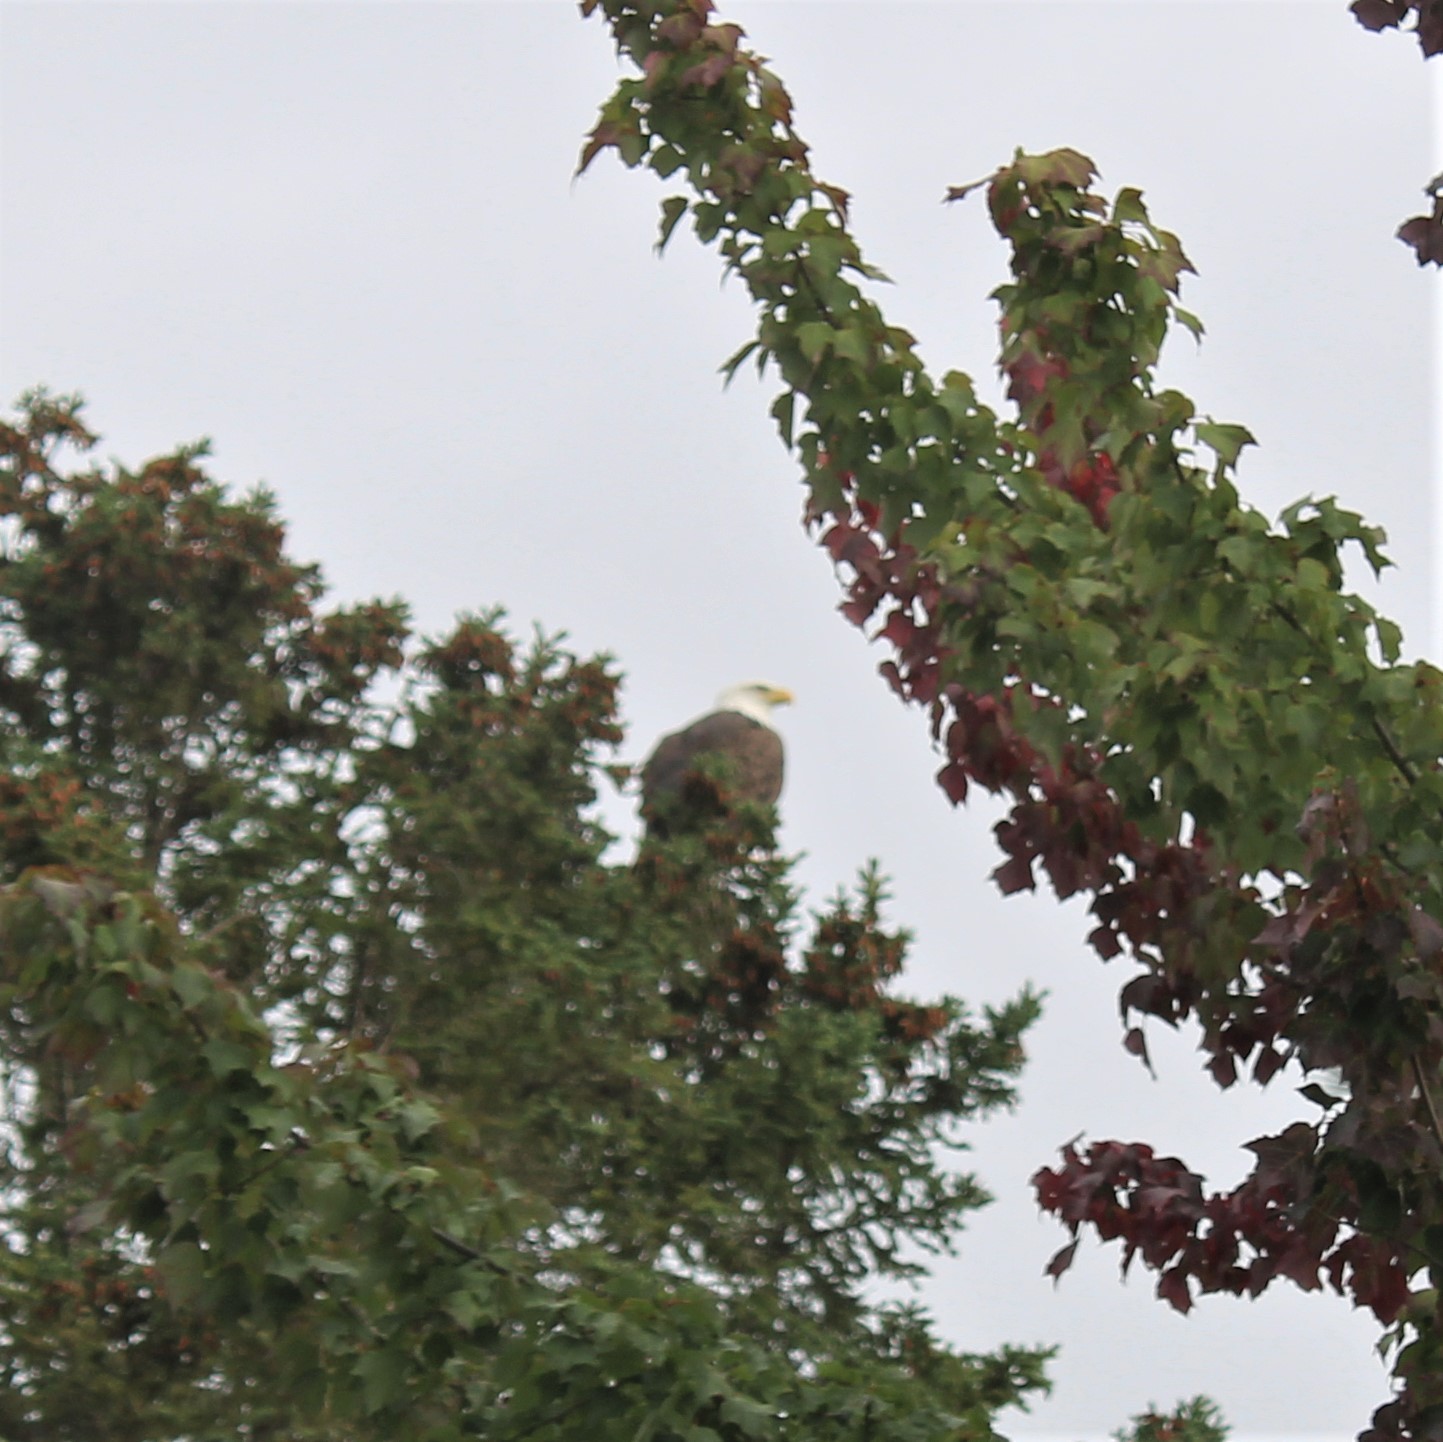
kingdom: Animalia
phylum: Chordata
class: Aves
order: Accipitriformes
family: Accipitridae
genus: Haliaeetus
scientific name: Haliaeetus leucocephalus
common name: Bald eagle
